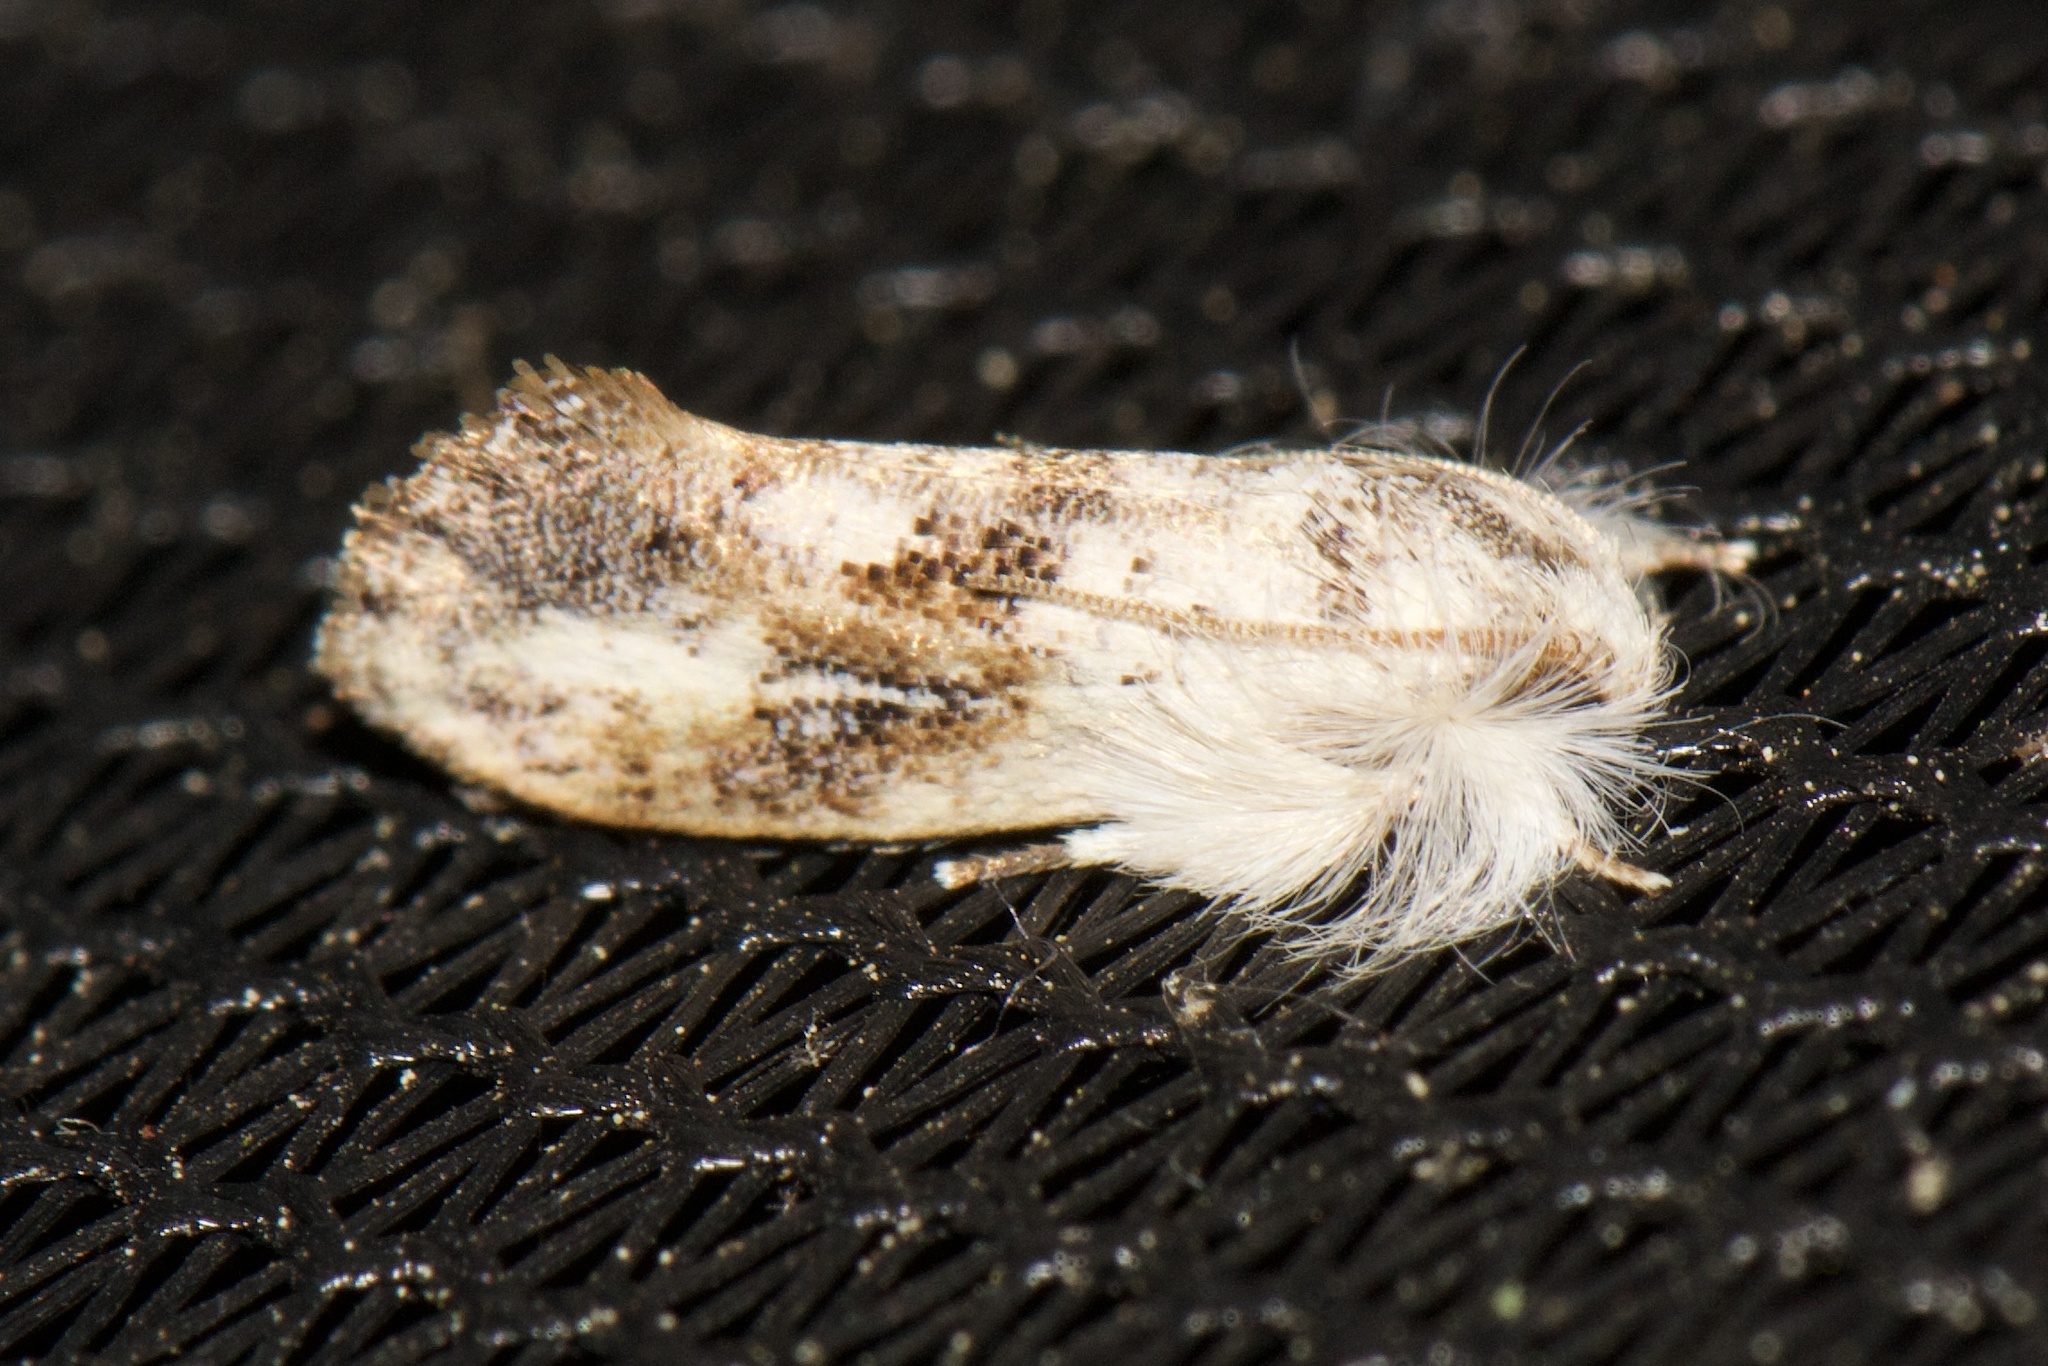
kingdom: Animalia
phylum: Arthropoda
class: Insecta
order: Lepidoptera
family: Tineidae
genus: Acrolophus
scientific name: Acrolophus mycetophagus
